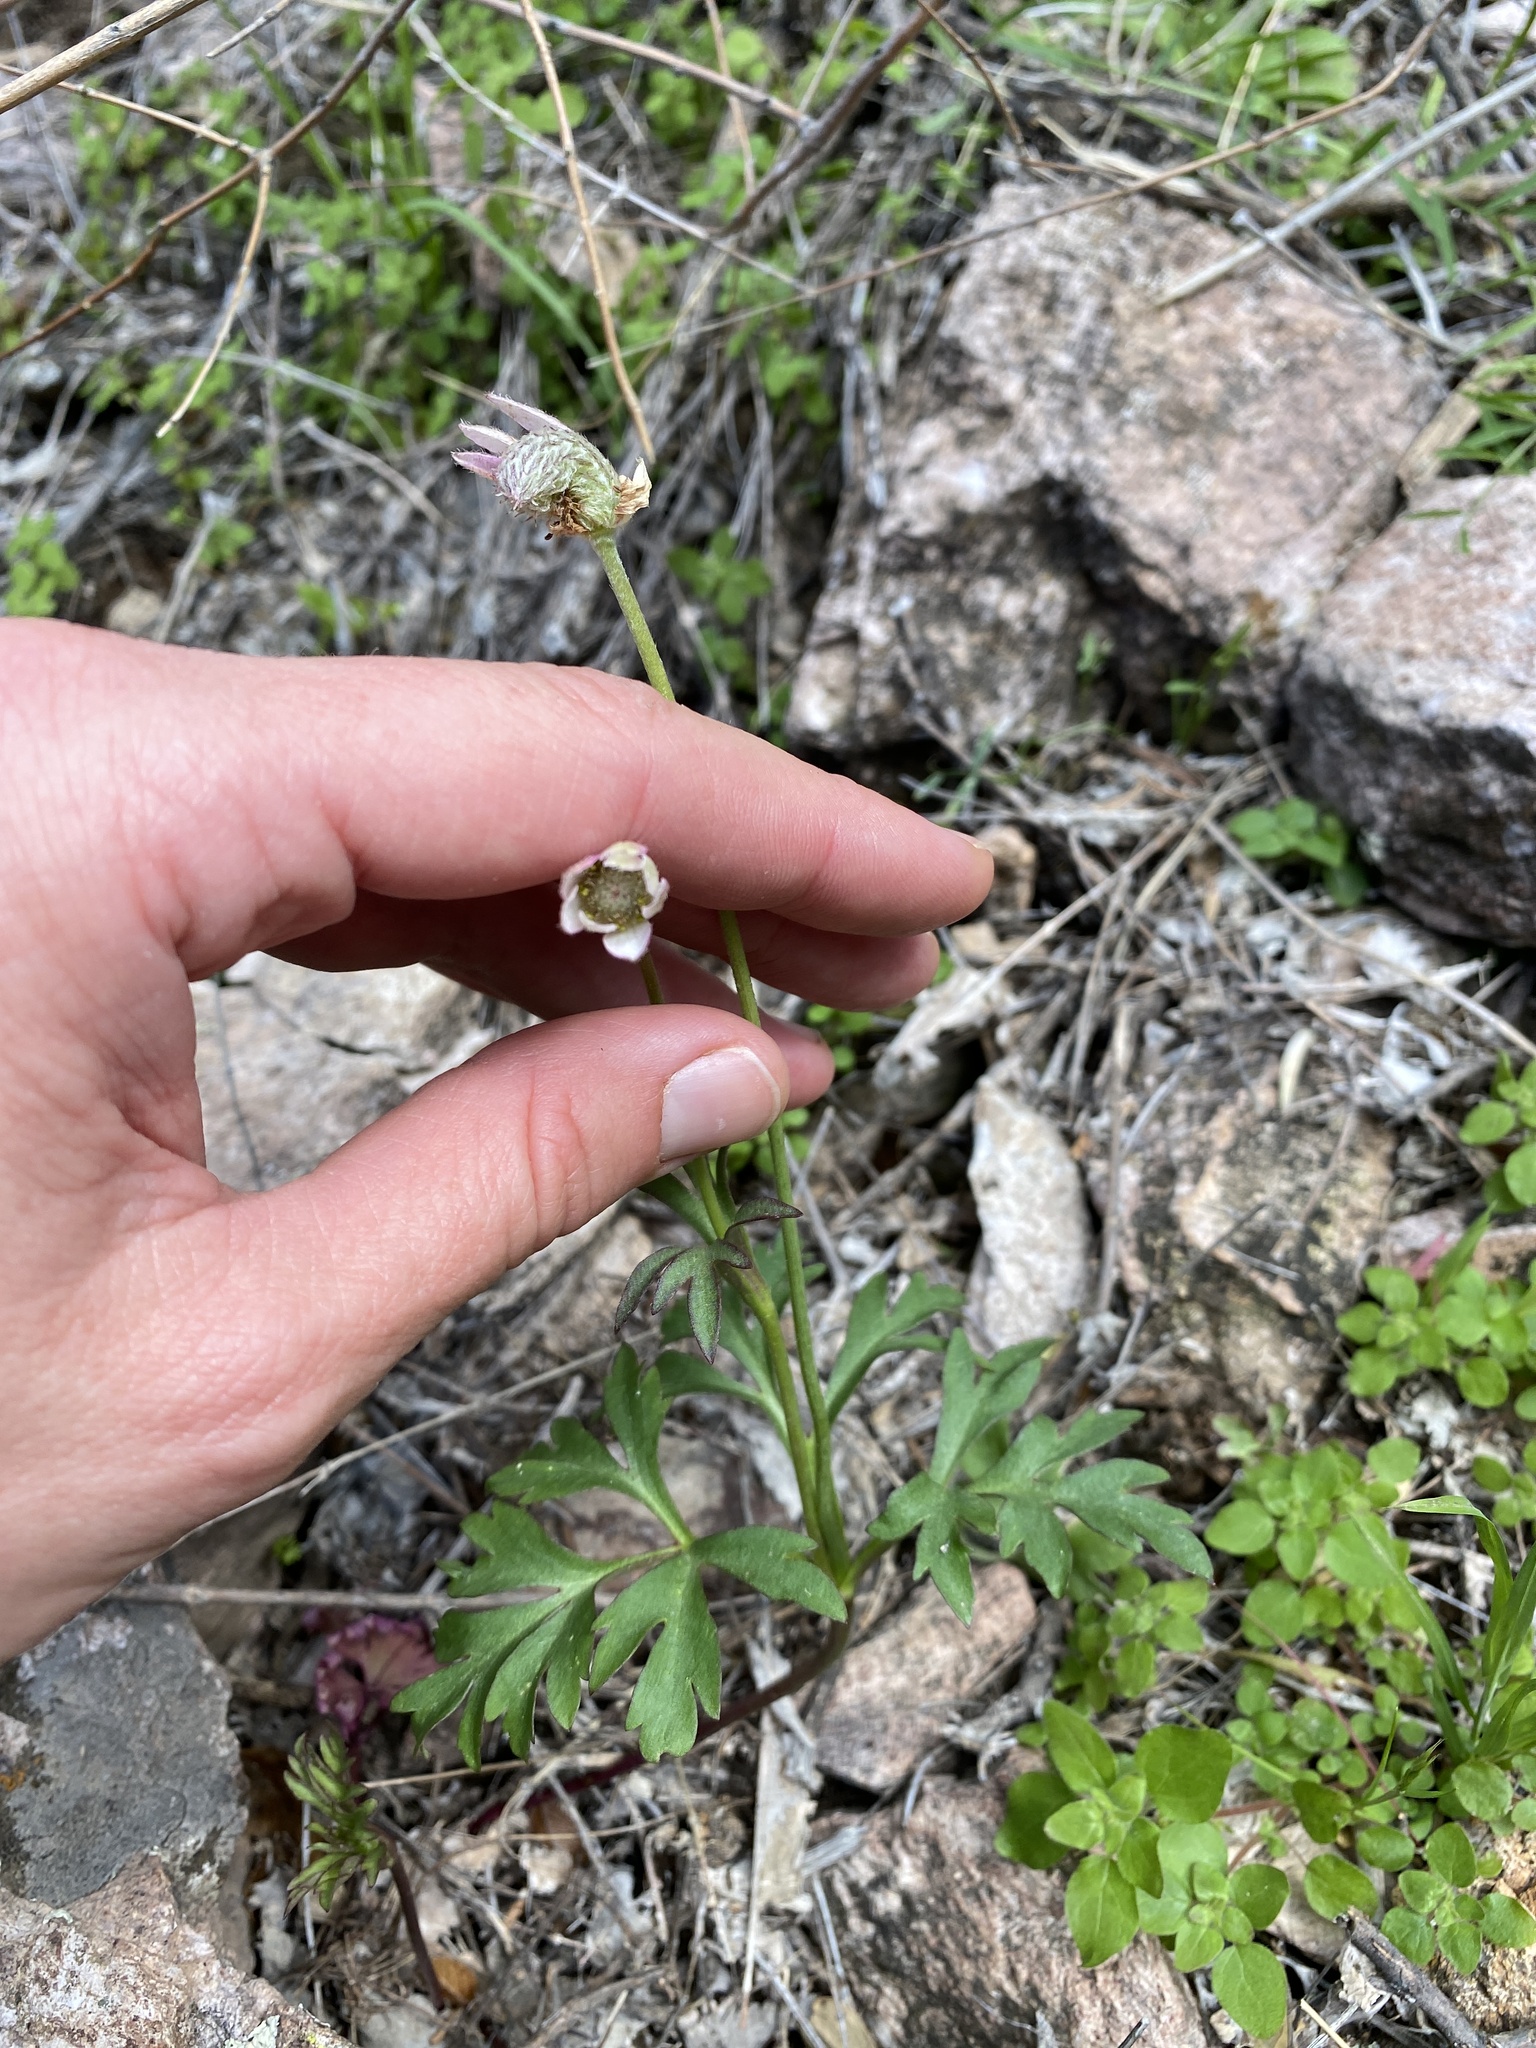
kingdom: Plantae
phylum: Tracheophyta
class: Magnoliopsida
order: Ranunculales
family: Ranunculaceae
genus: Anemone
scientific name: Anemone tuberosa
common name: Desert anemone
